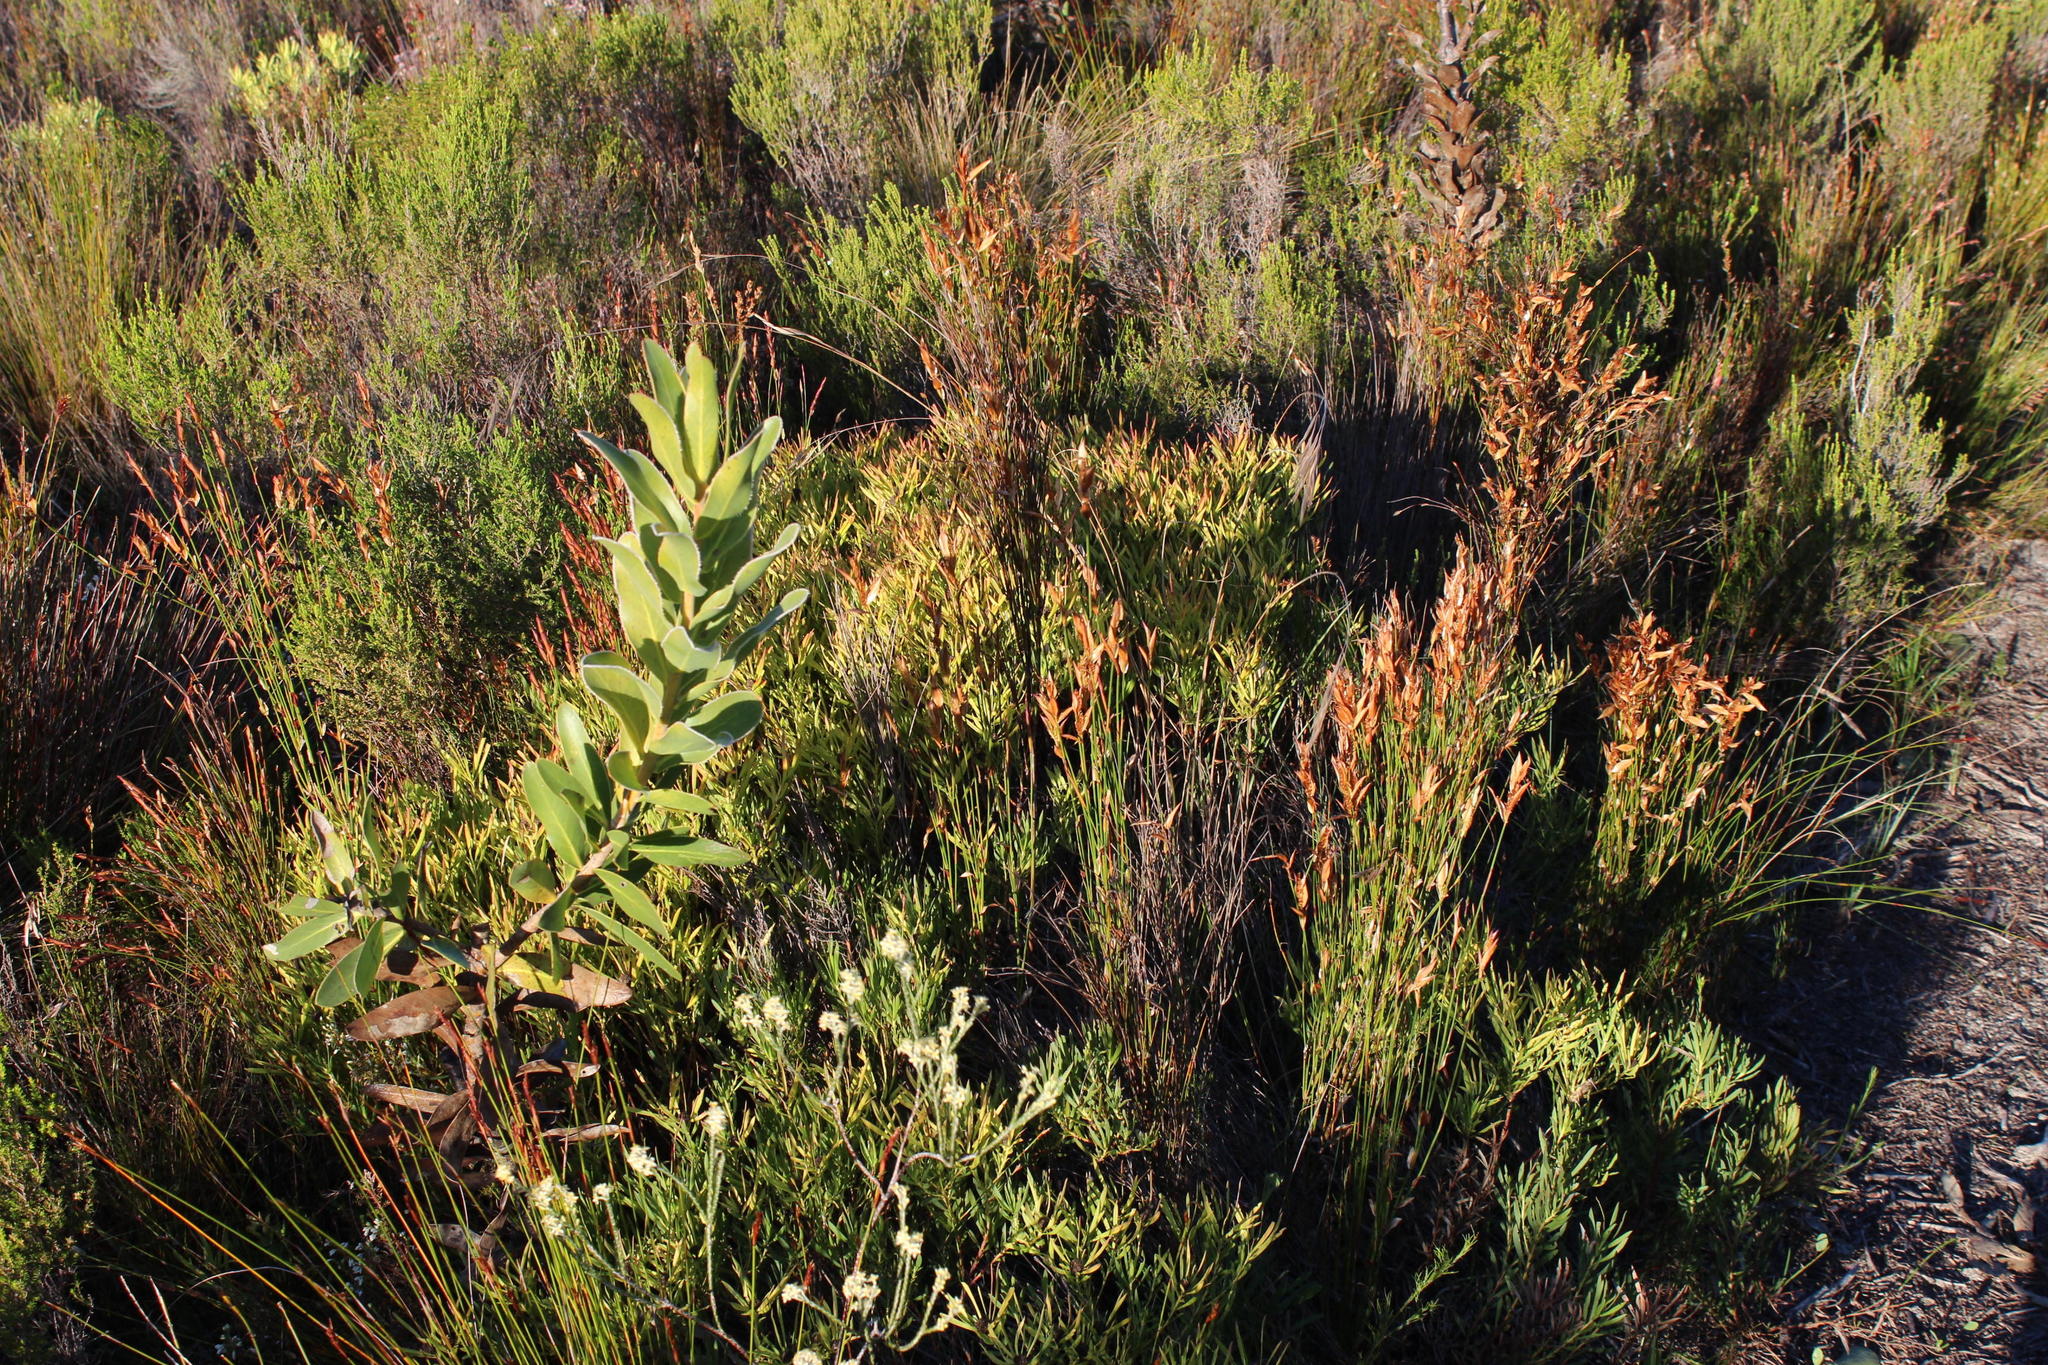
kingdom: Plantae
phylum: Tracheophyta
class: Magnoliopsida
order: Proteales
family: Proteaceae
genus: Leucadendron
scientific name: Leucadendron salignum
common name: Common sunshine conebush
